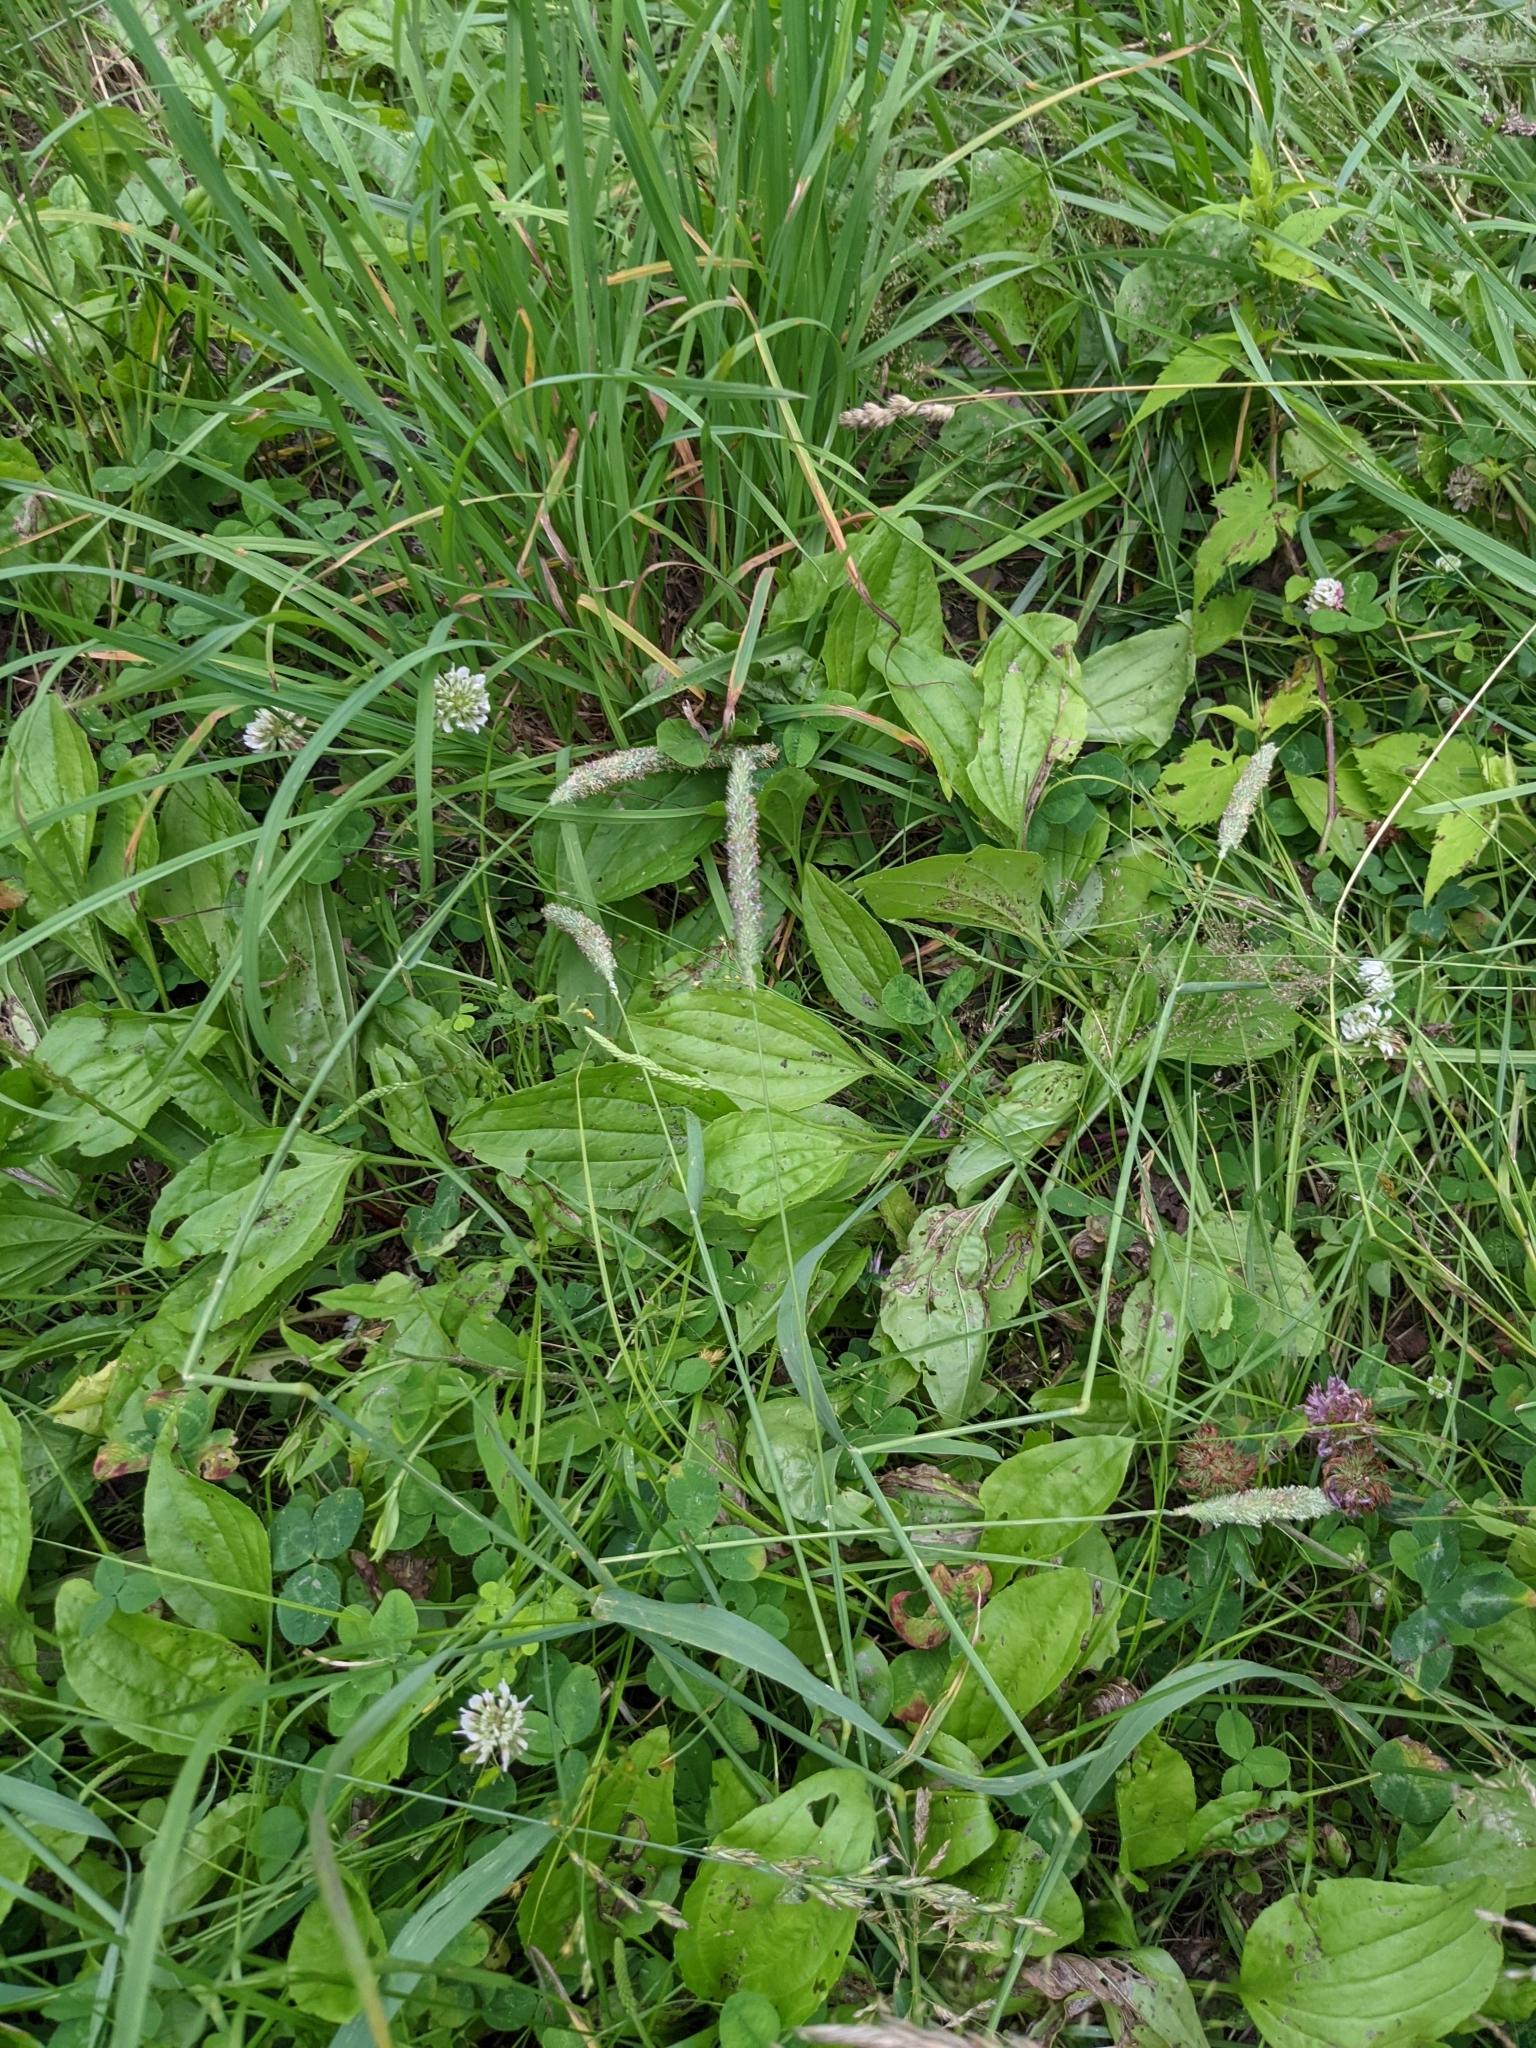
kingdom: Plantae
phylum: Tracheophyta
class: Magnoliopsida
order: Lamiales
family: Plantaginaceae
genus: Plantago
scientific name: Plantago rugelii
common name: American plantain
